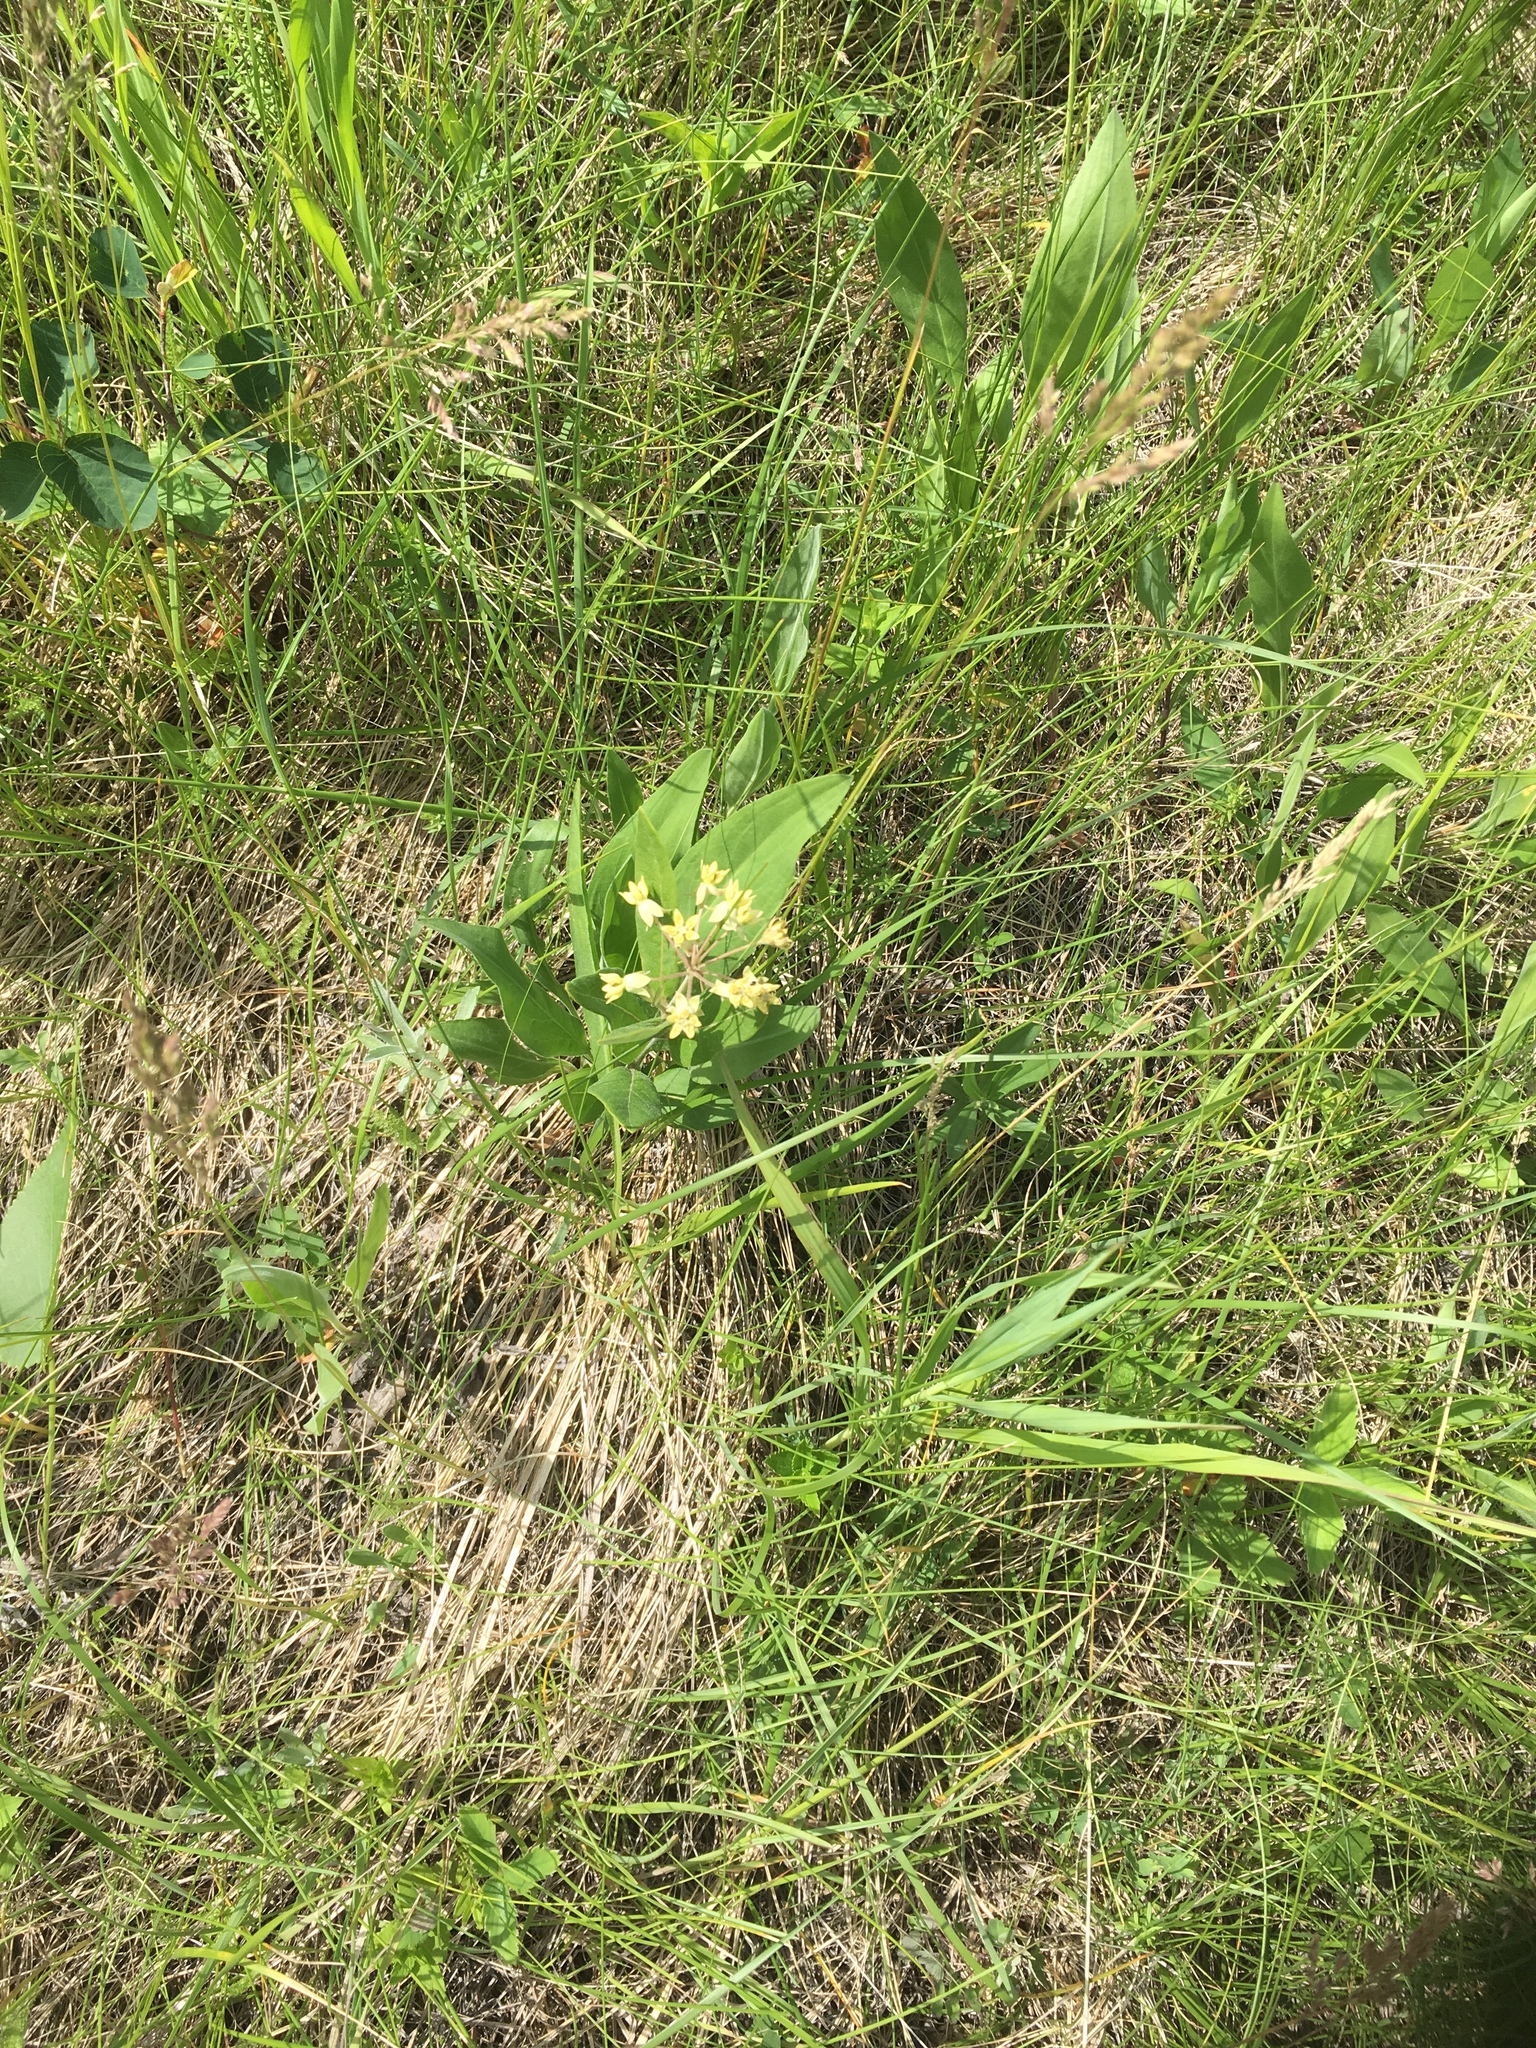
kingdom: Plantae
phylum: Tracheophyta
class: Magnoliopsida
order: Gentianales
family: Apocynaceae
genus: Asclepias
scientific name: Asclepias ovalifolia
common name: Dwarf milkweed
